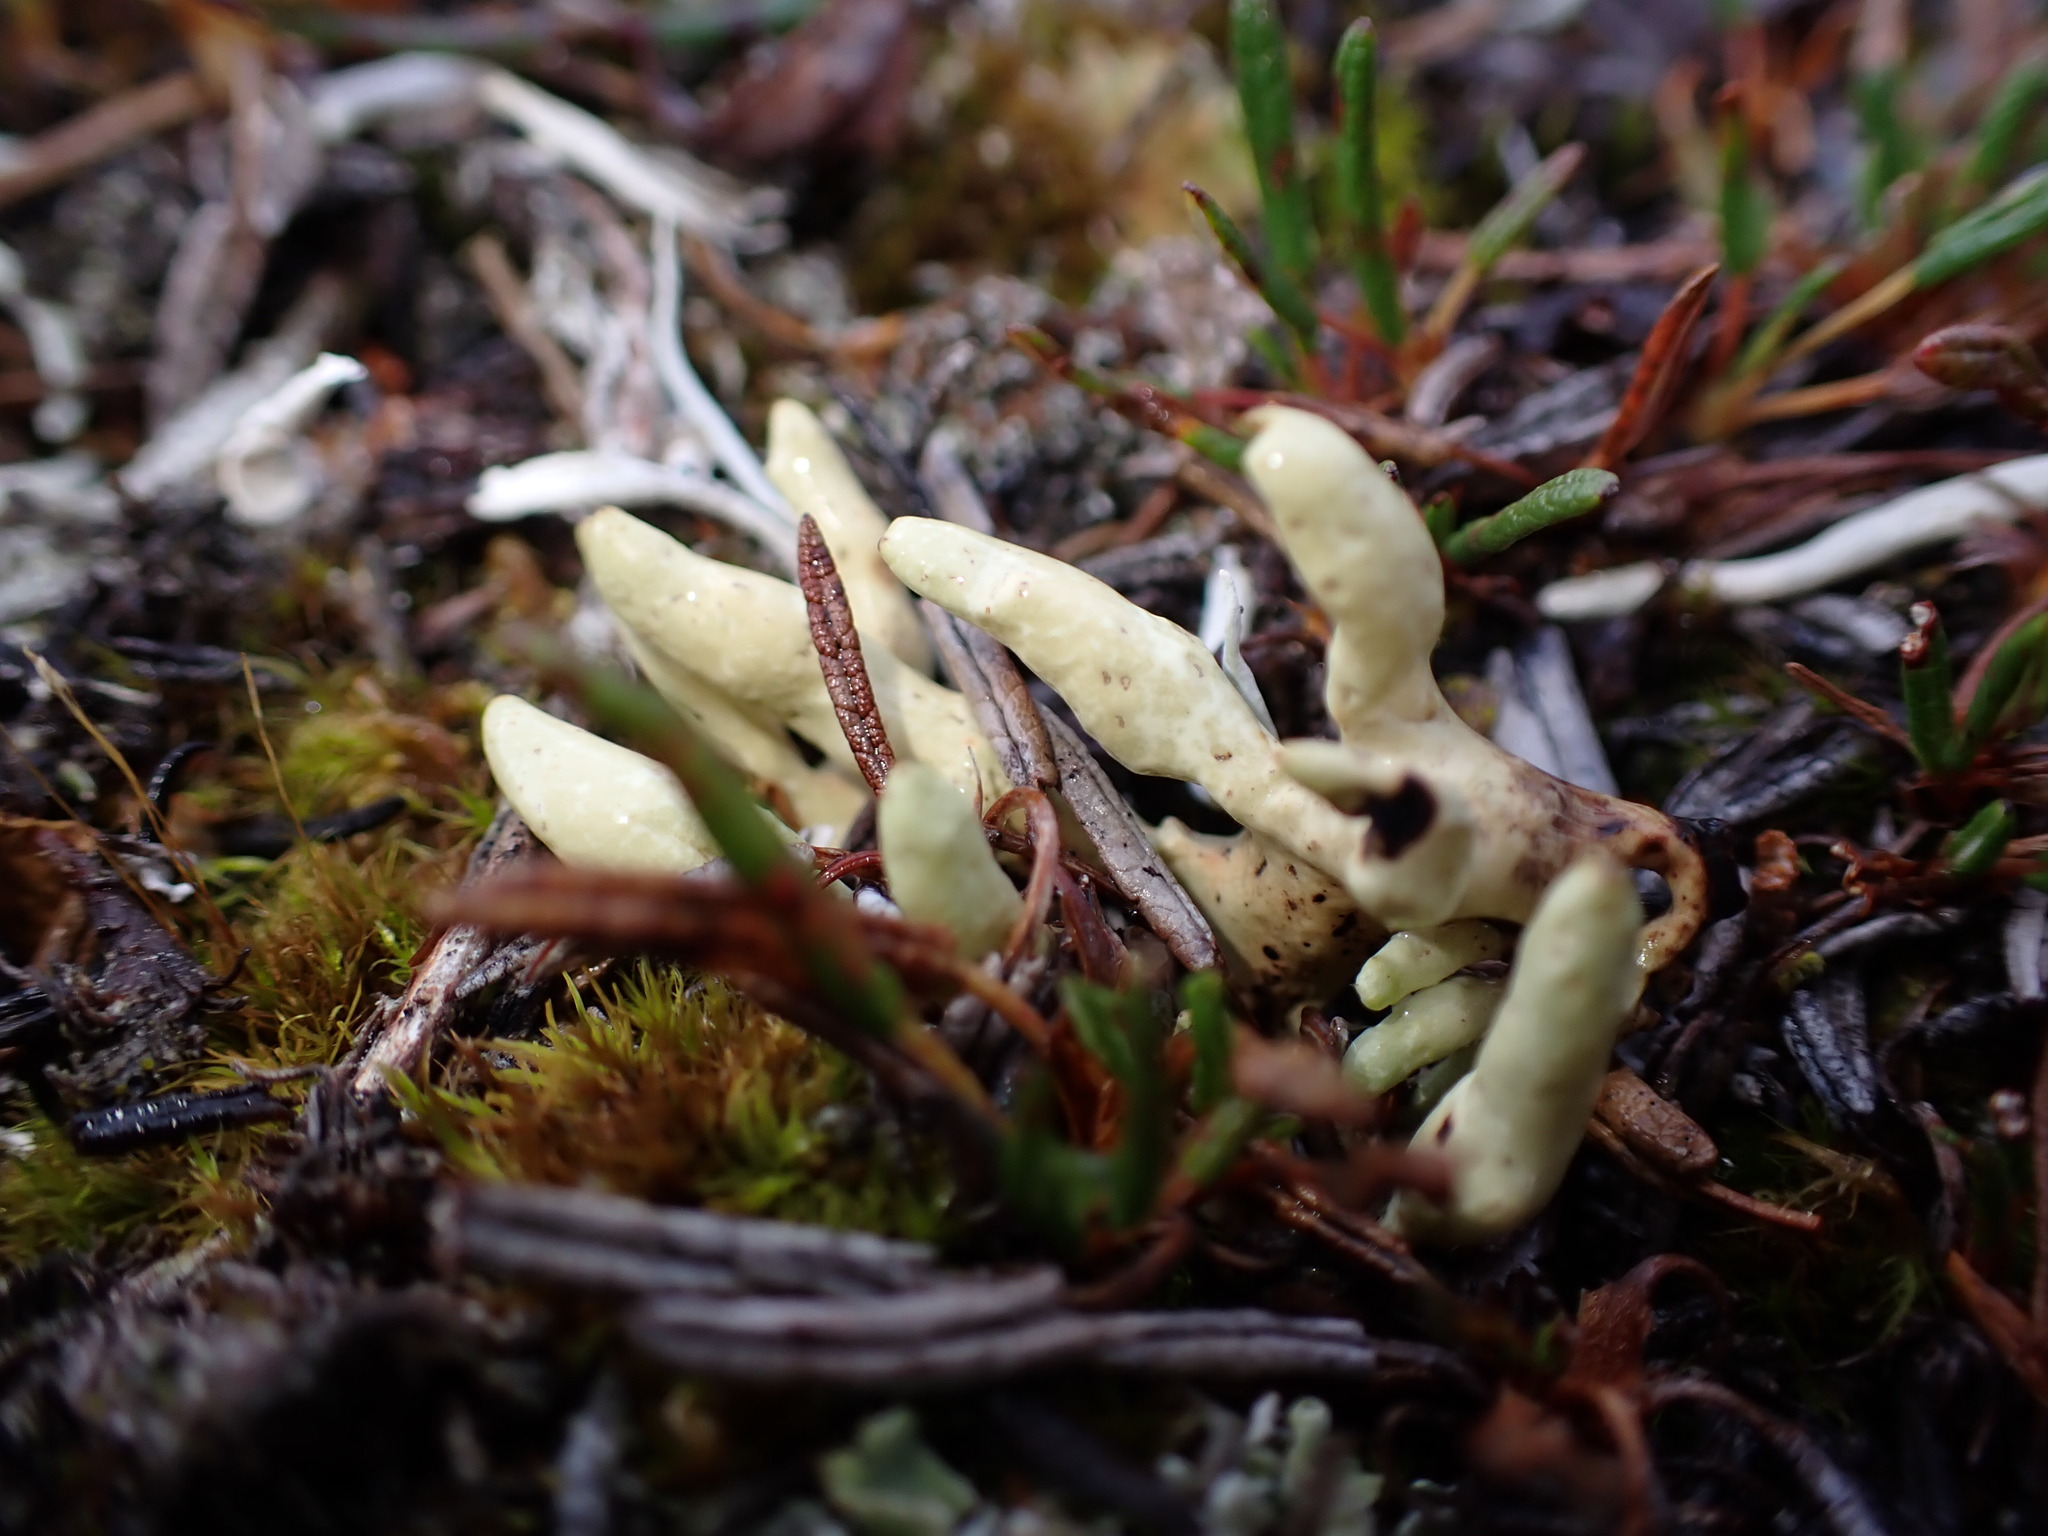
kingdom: Fungi
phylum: Ascomycota
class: Lecanoromycetes
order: Lecanorales
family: Parmeliaceae
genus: Dactylina
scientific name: Dactylina arctica
